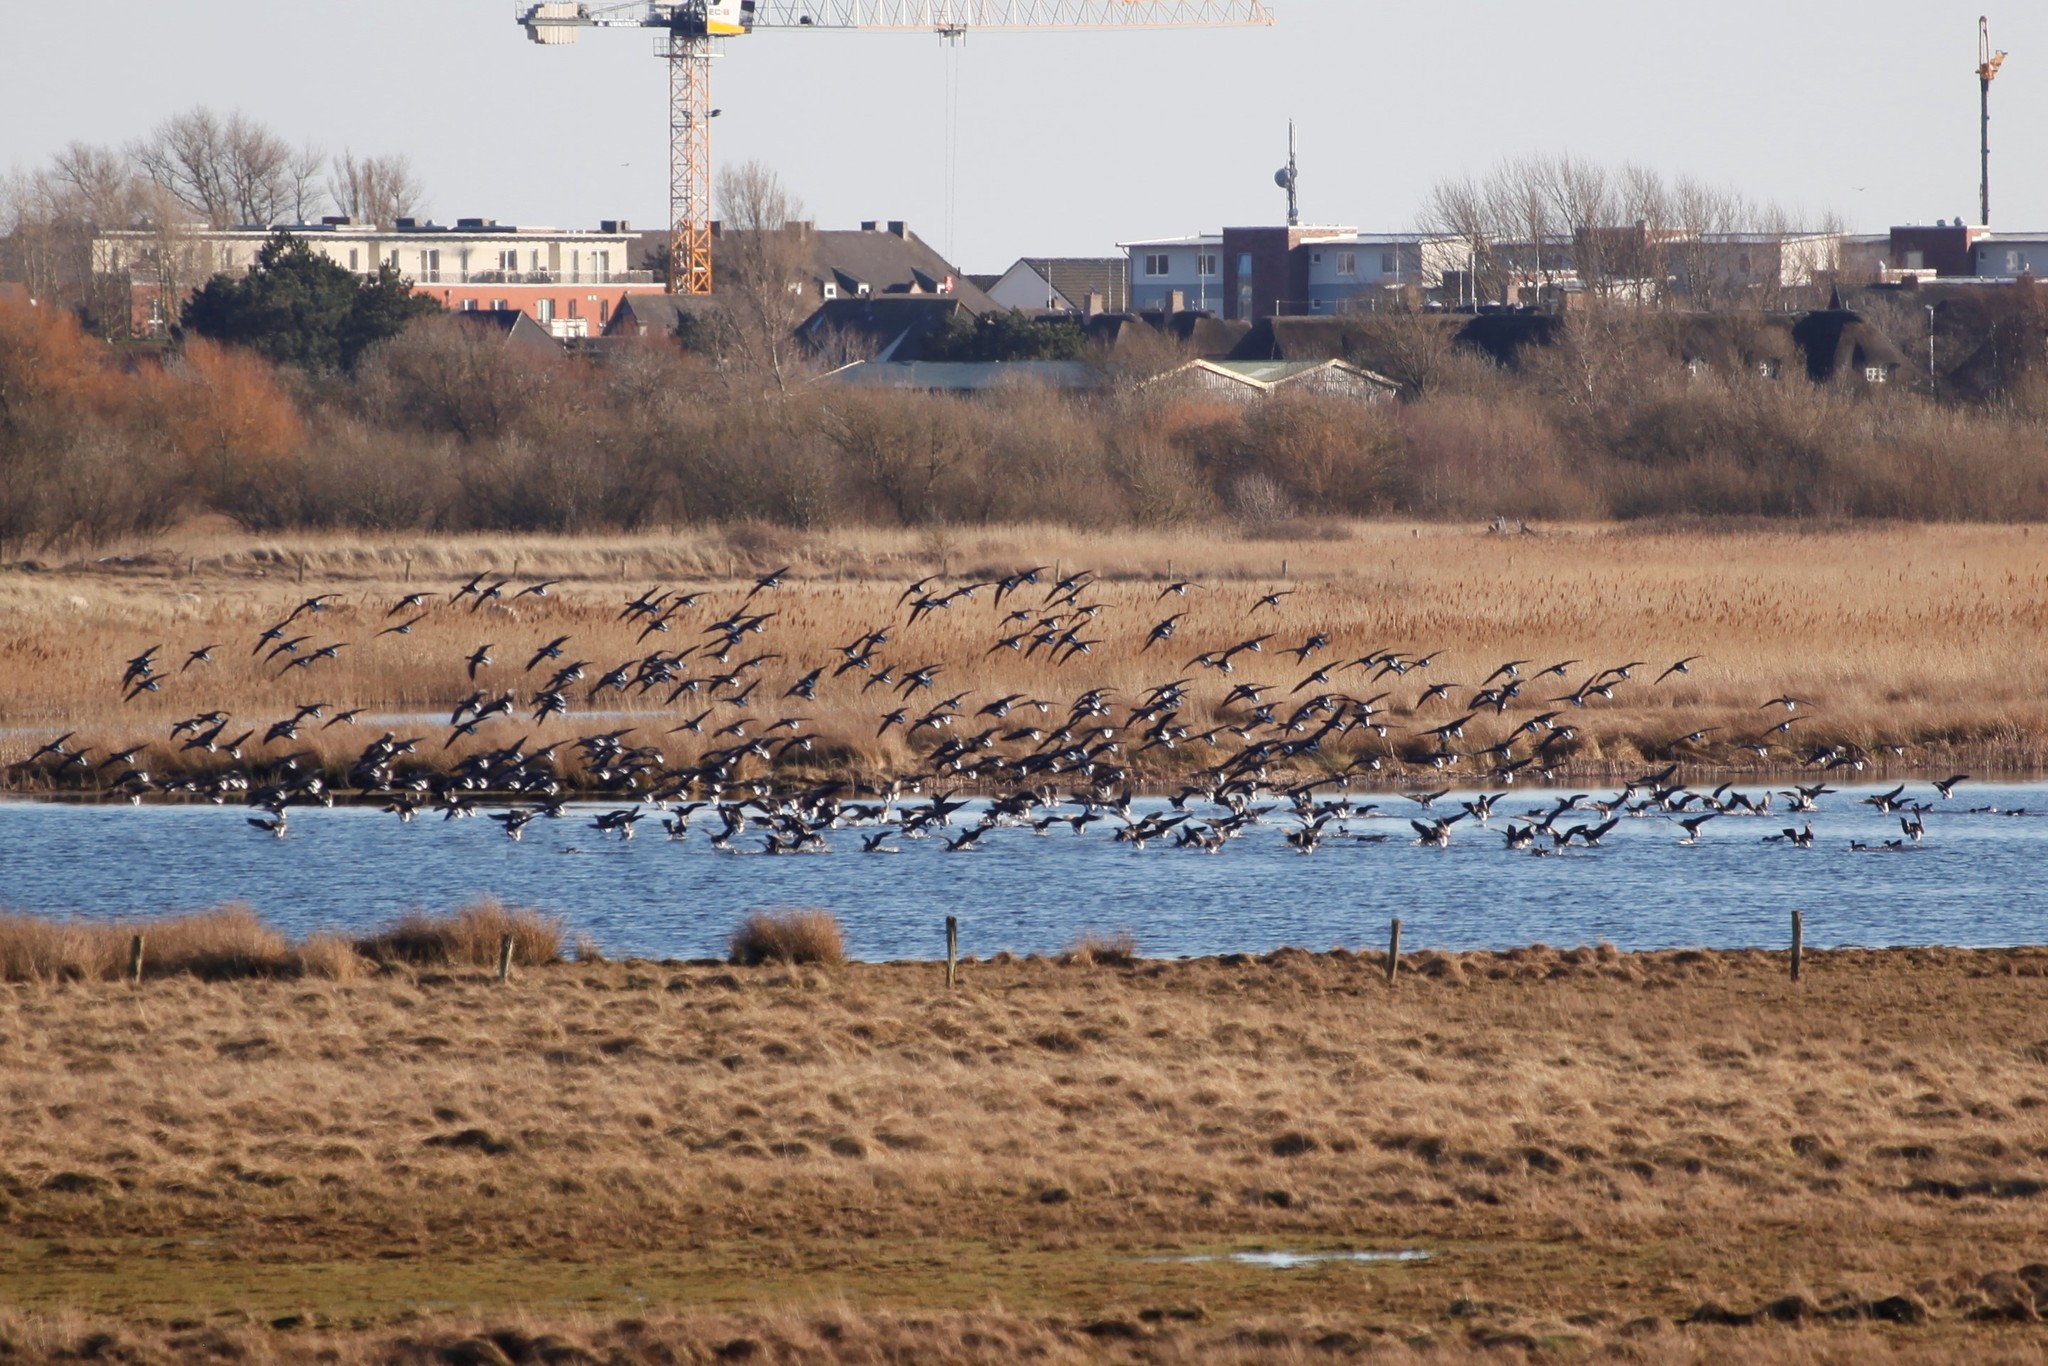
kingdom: Animalia
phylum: Chordata
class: Aves
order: Anseriformes
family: Anatidae
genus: Branta
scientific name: Branta bernicla
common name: Brant goose
